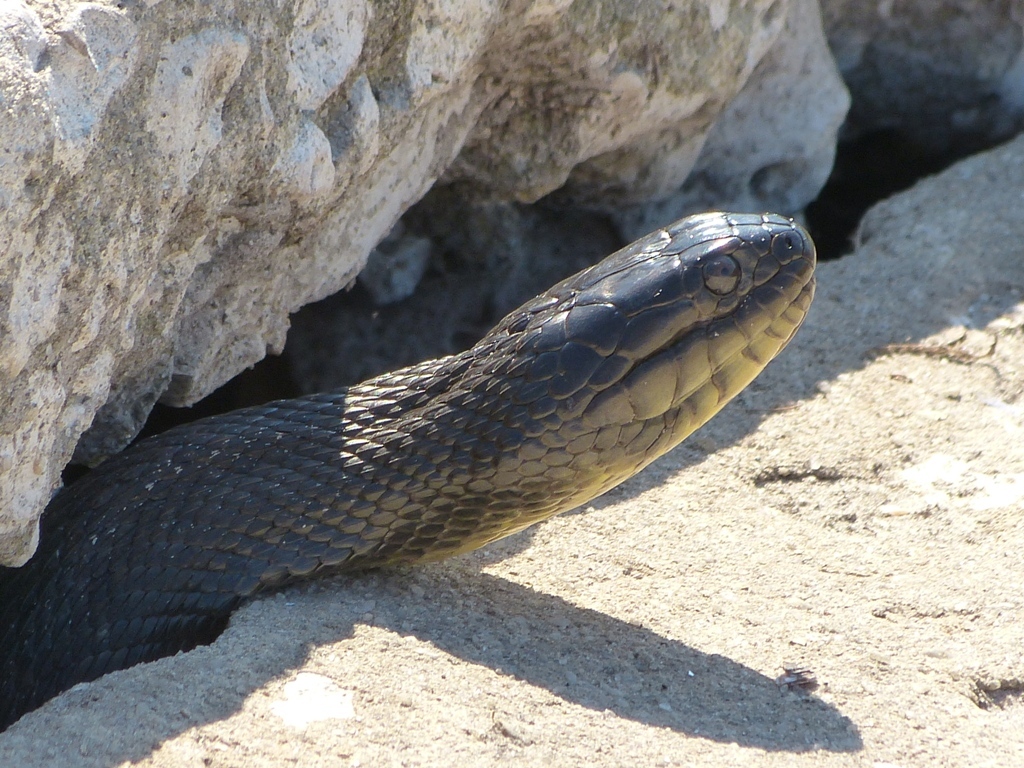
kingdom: Animalia
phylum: Chordata
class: Squamata
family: Colubridae
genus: Nerodia
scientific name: Nerodia floridana
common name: Florida green watersnake
